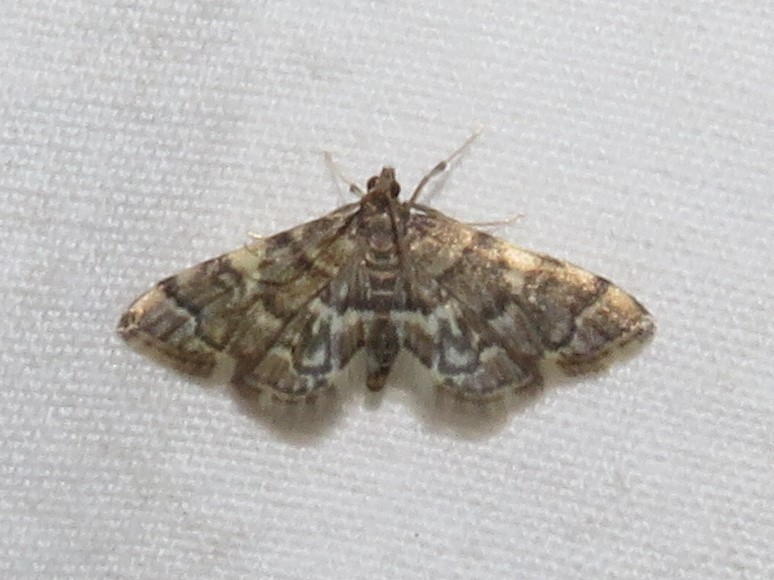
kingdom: Animalia
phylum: Arthropoda
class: Insecta
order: Lepidoptera
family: Crambidae
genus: Anageshna
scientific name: Anageshna primordialis
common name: Yellow-spotted webworm moth
